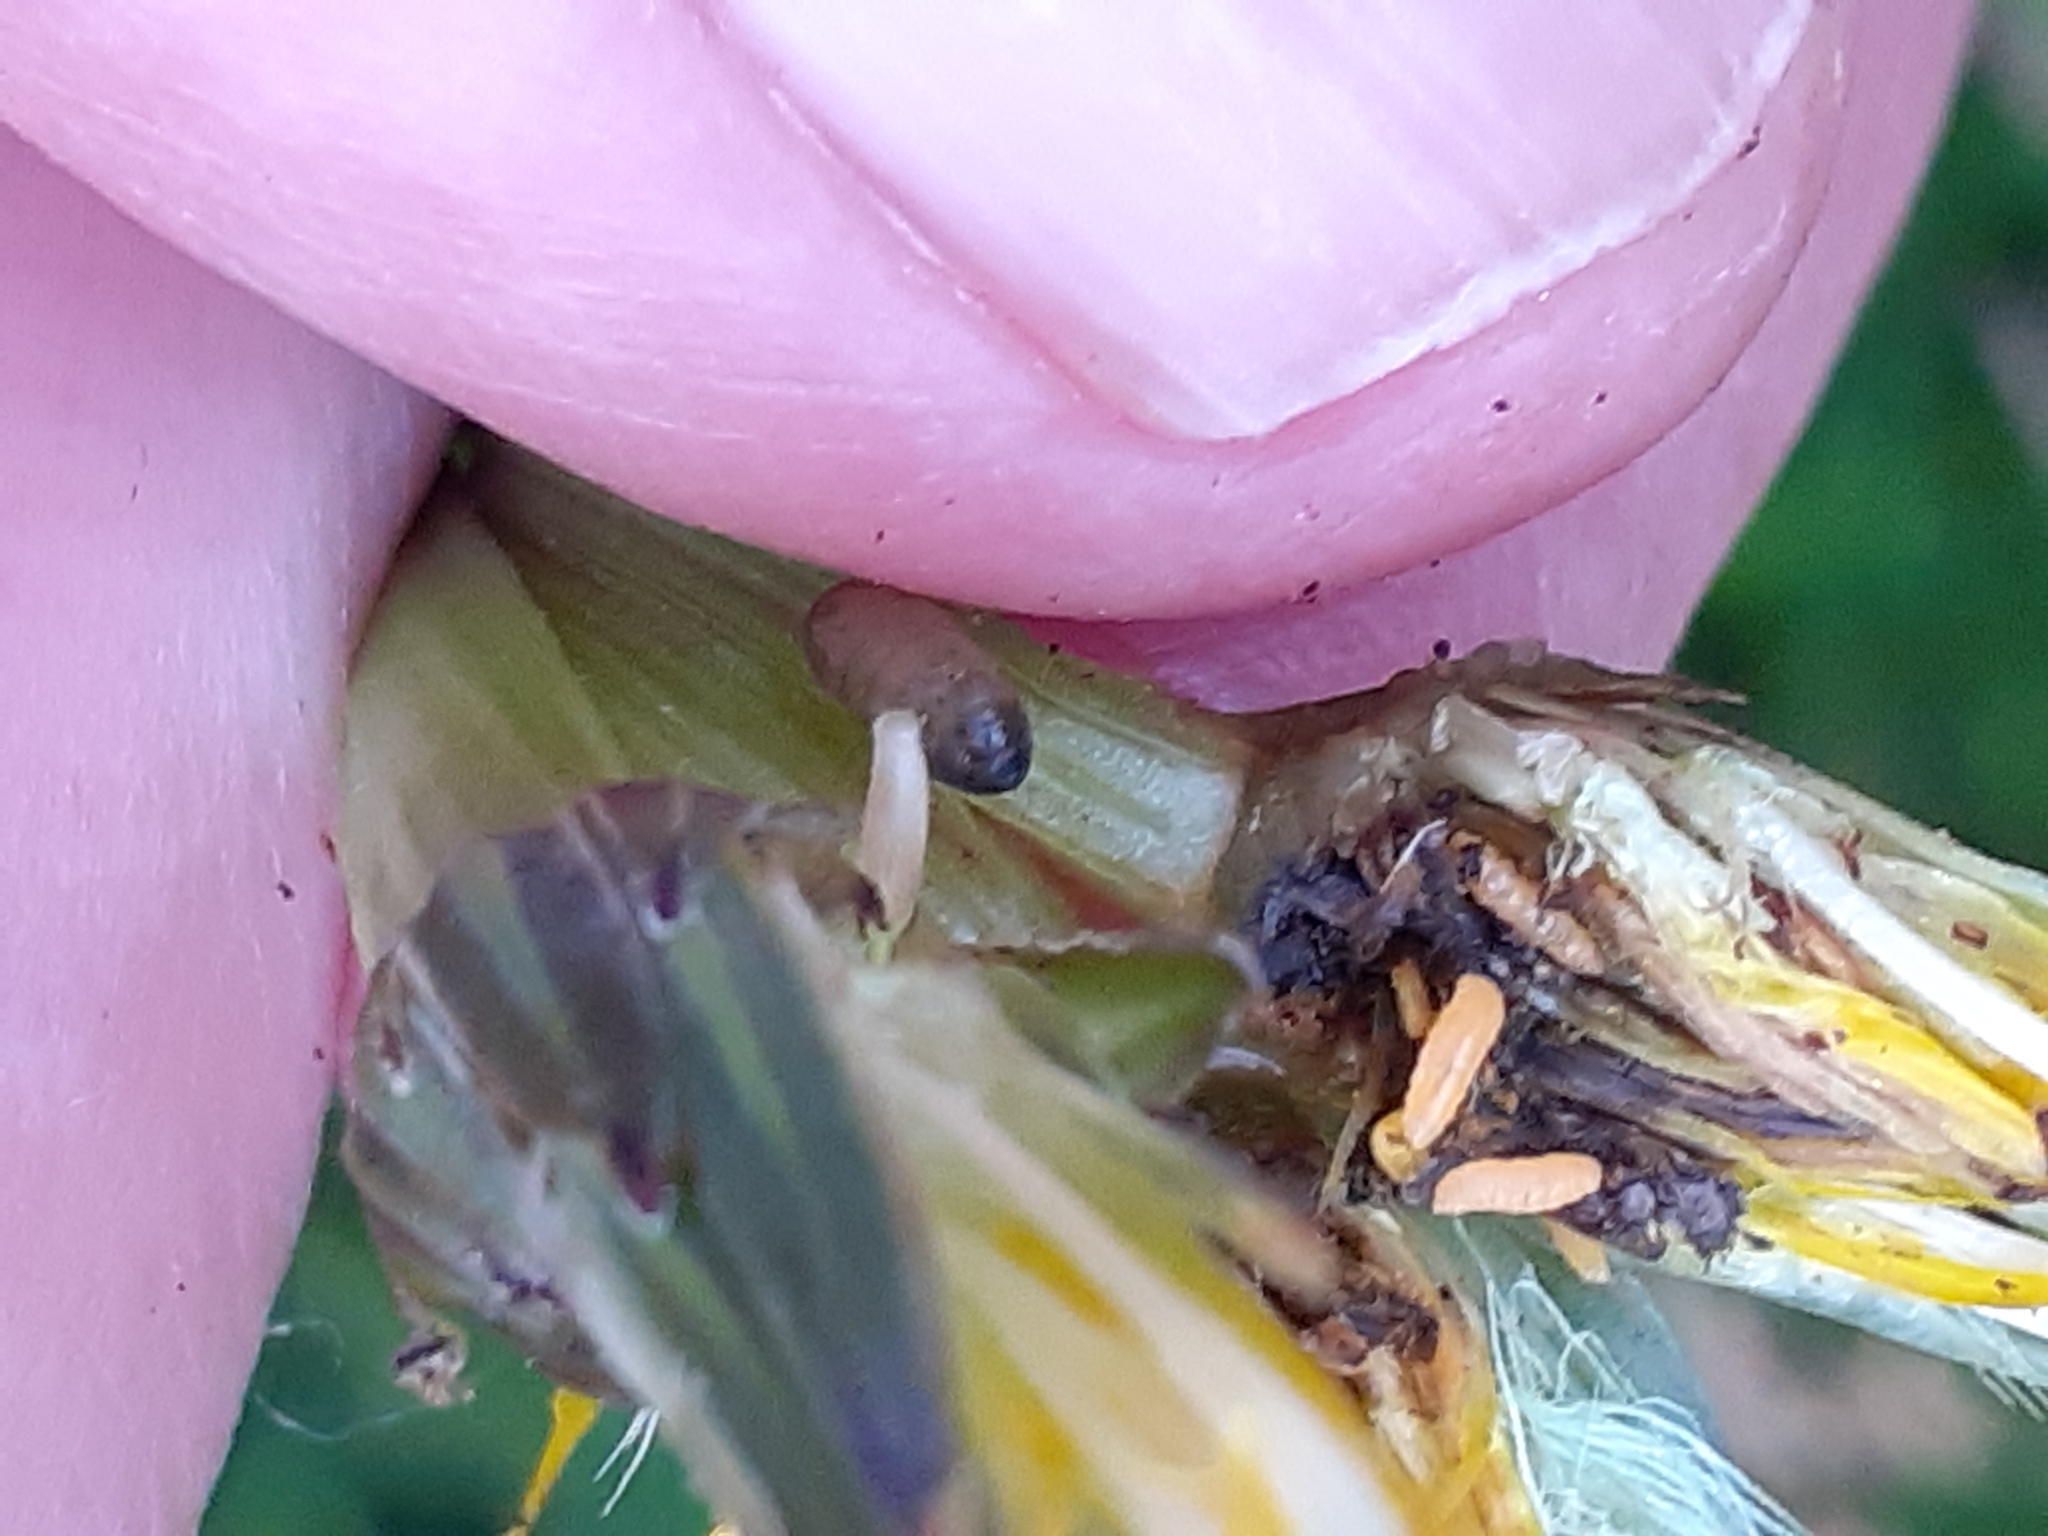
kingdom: Animalia
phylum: Arthropoda
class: Insecta
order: Diptera
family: Cecidomyiidae
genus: Jaapiella
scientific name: Jaapiella hypochoeridis
